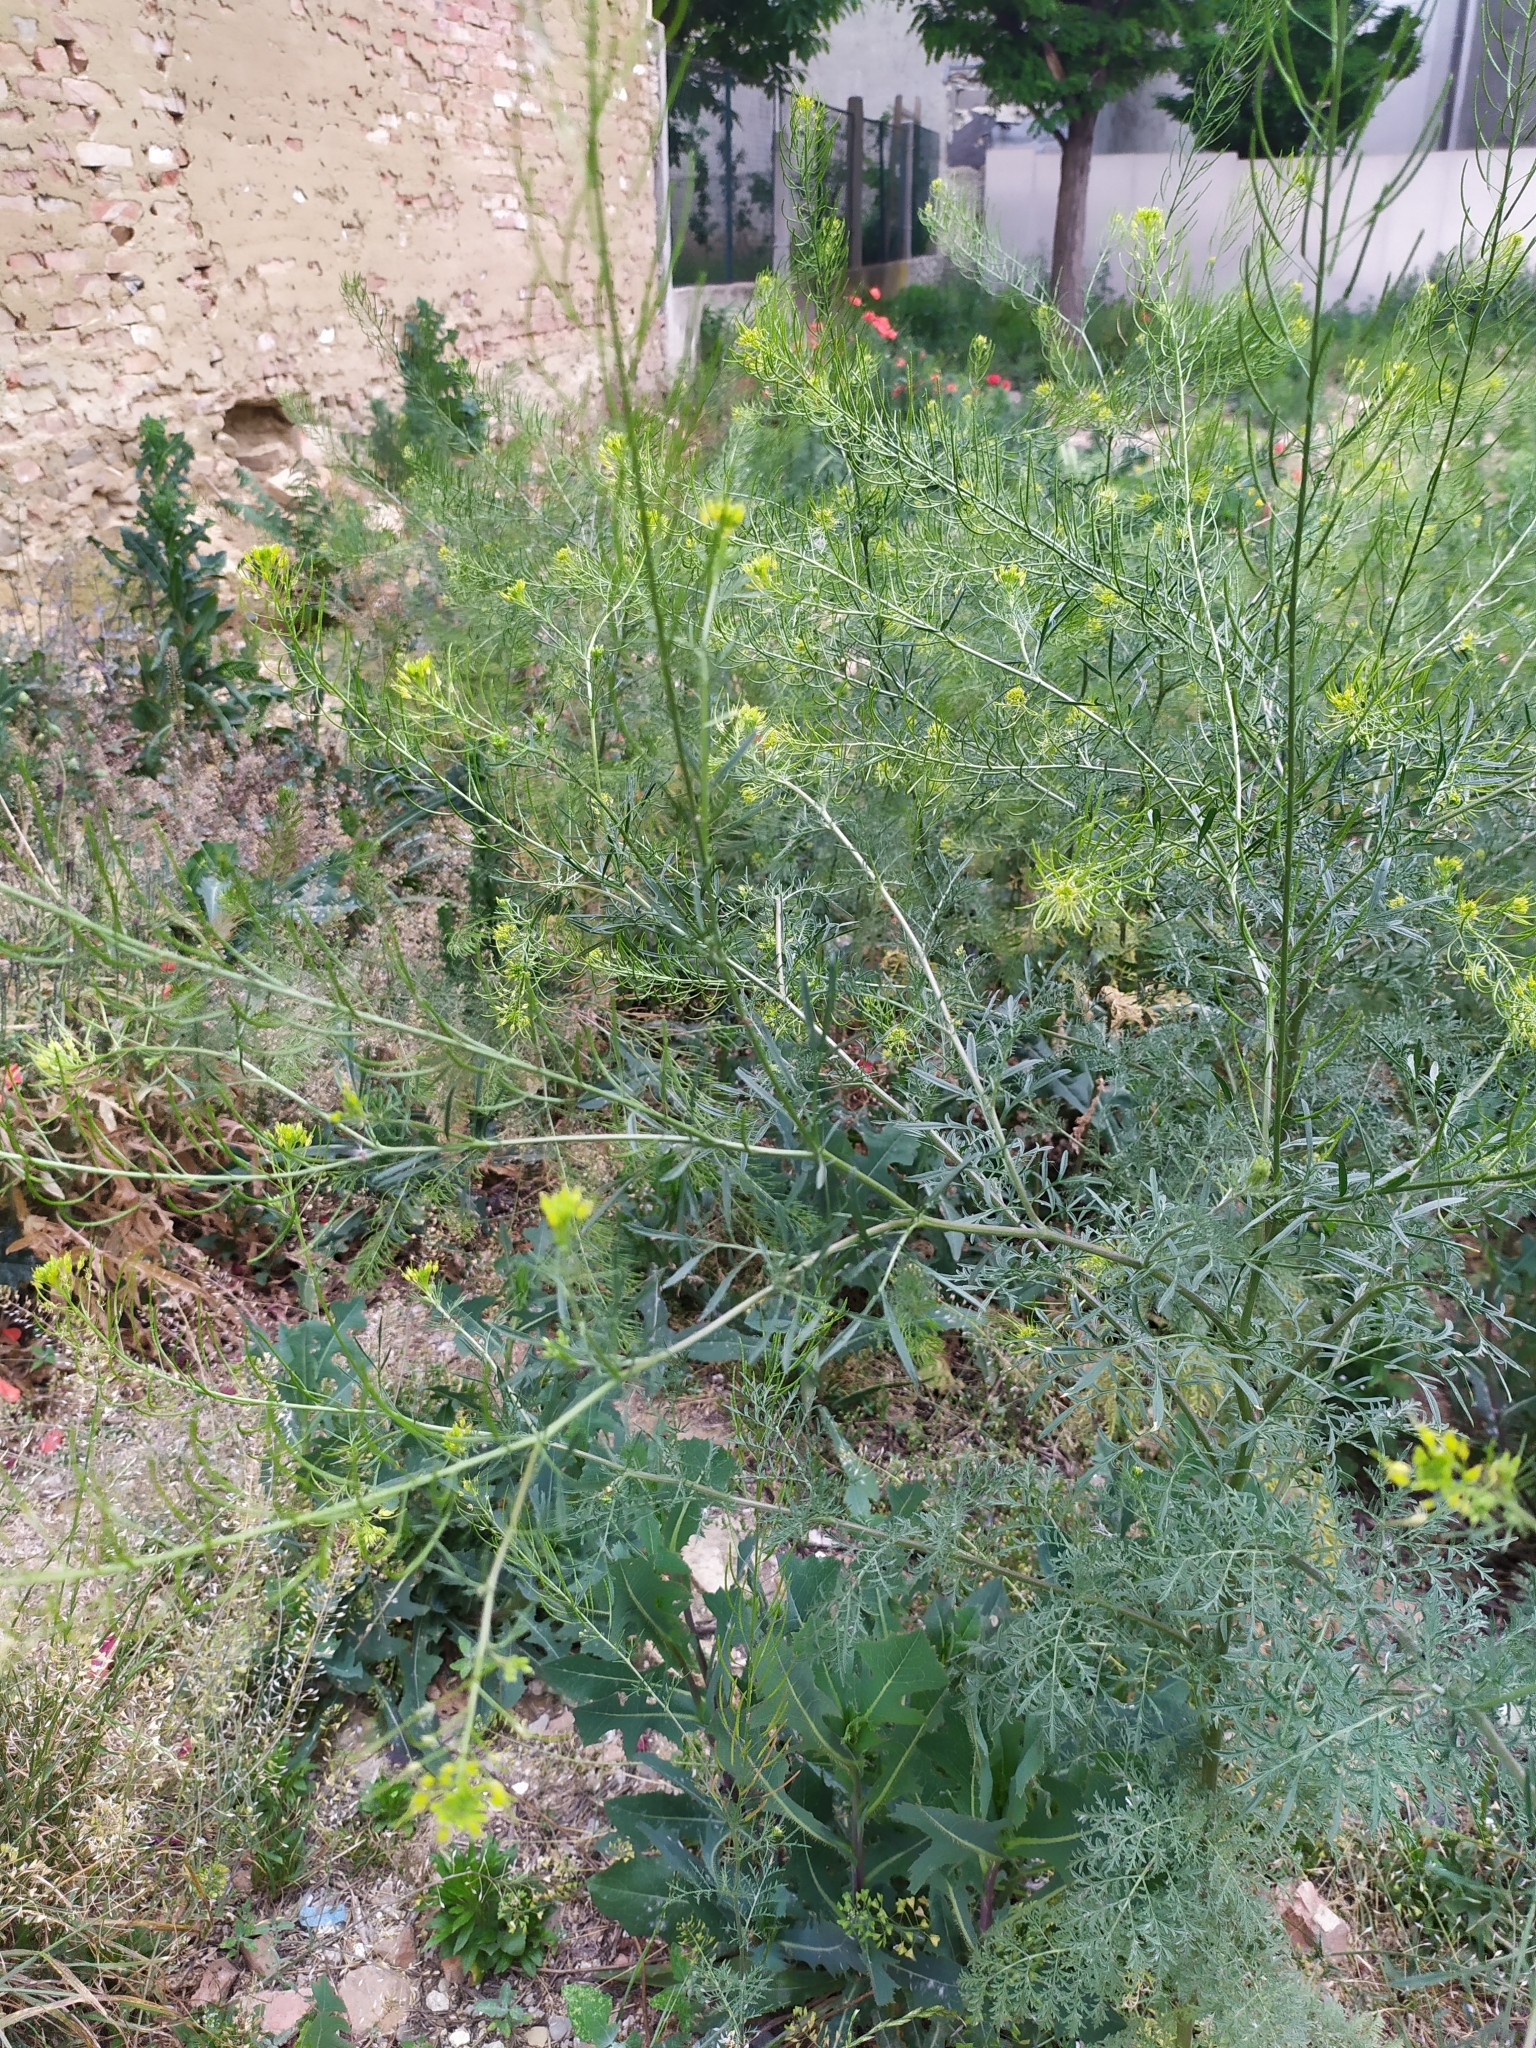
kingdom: Plantae
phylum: Tracheophyta
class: Magnoliopsida
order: Brassicales
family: Brassicaceae
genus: Descurainia
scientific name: Descurainia sophia
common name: Flixweed
